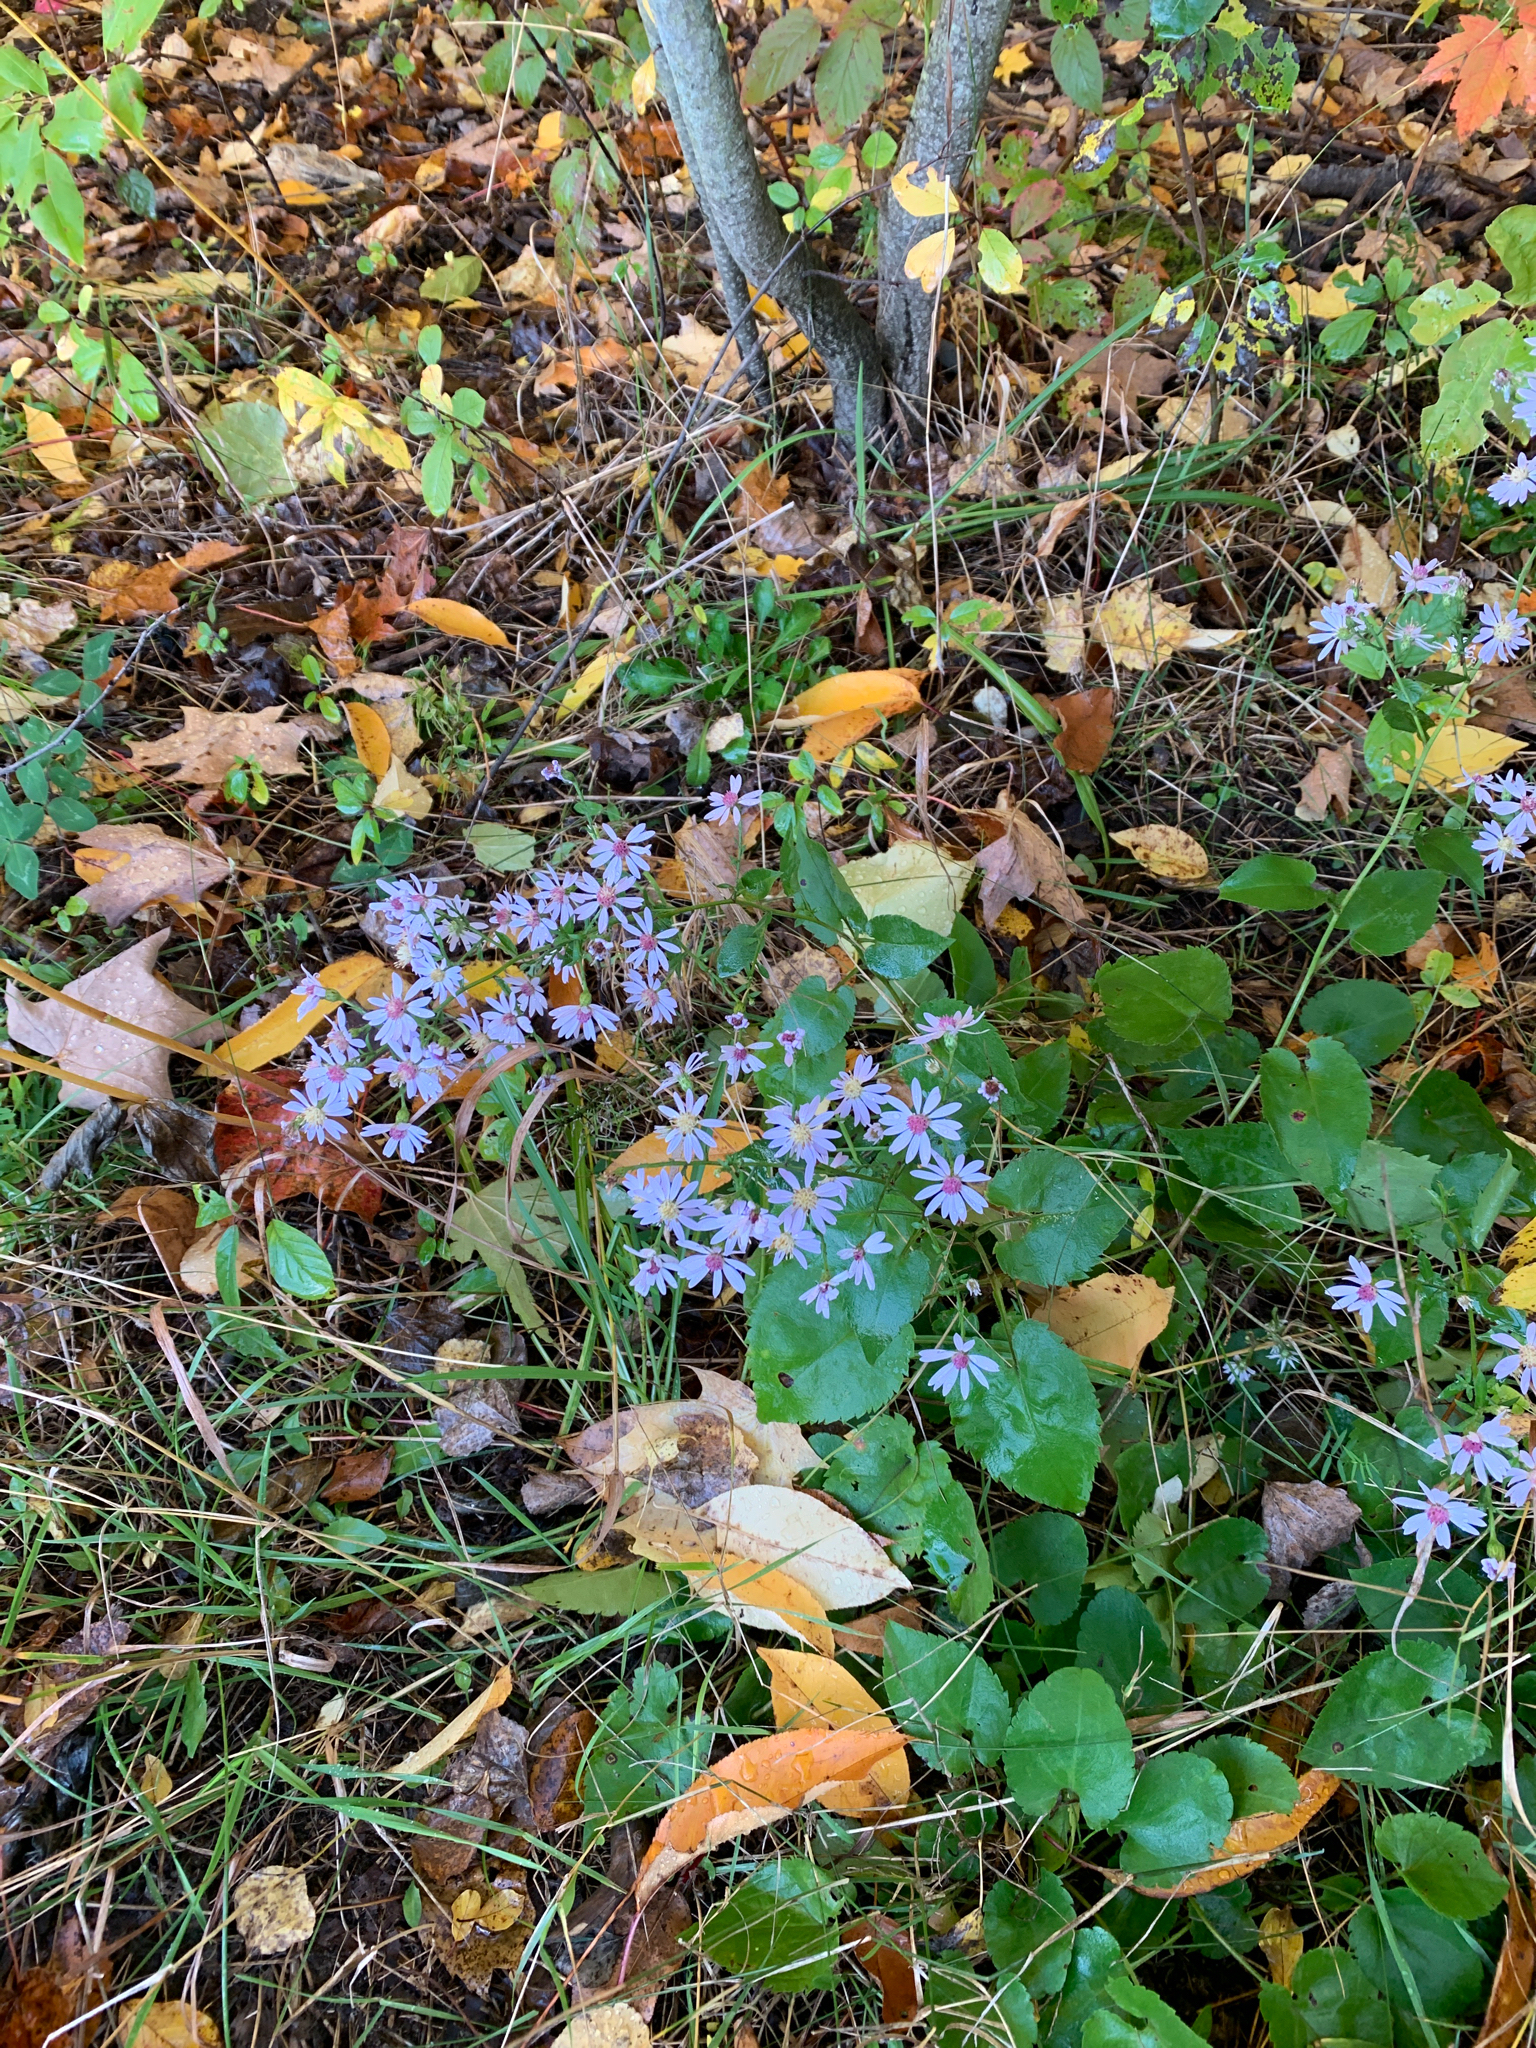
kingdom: Plantae
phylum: Tracheophyta
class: Magnoliopsida
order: Asterales
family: Asteraceae
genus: Symphyotrichum
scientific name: Symphyotrichum cordifolium
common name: Beeweed
